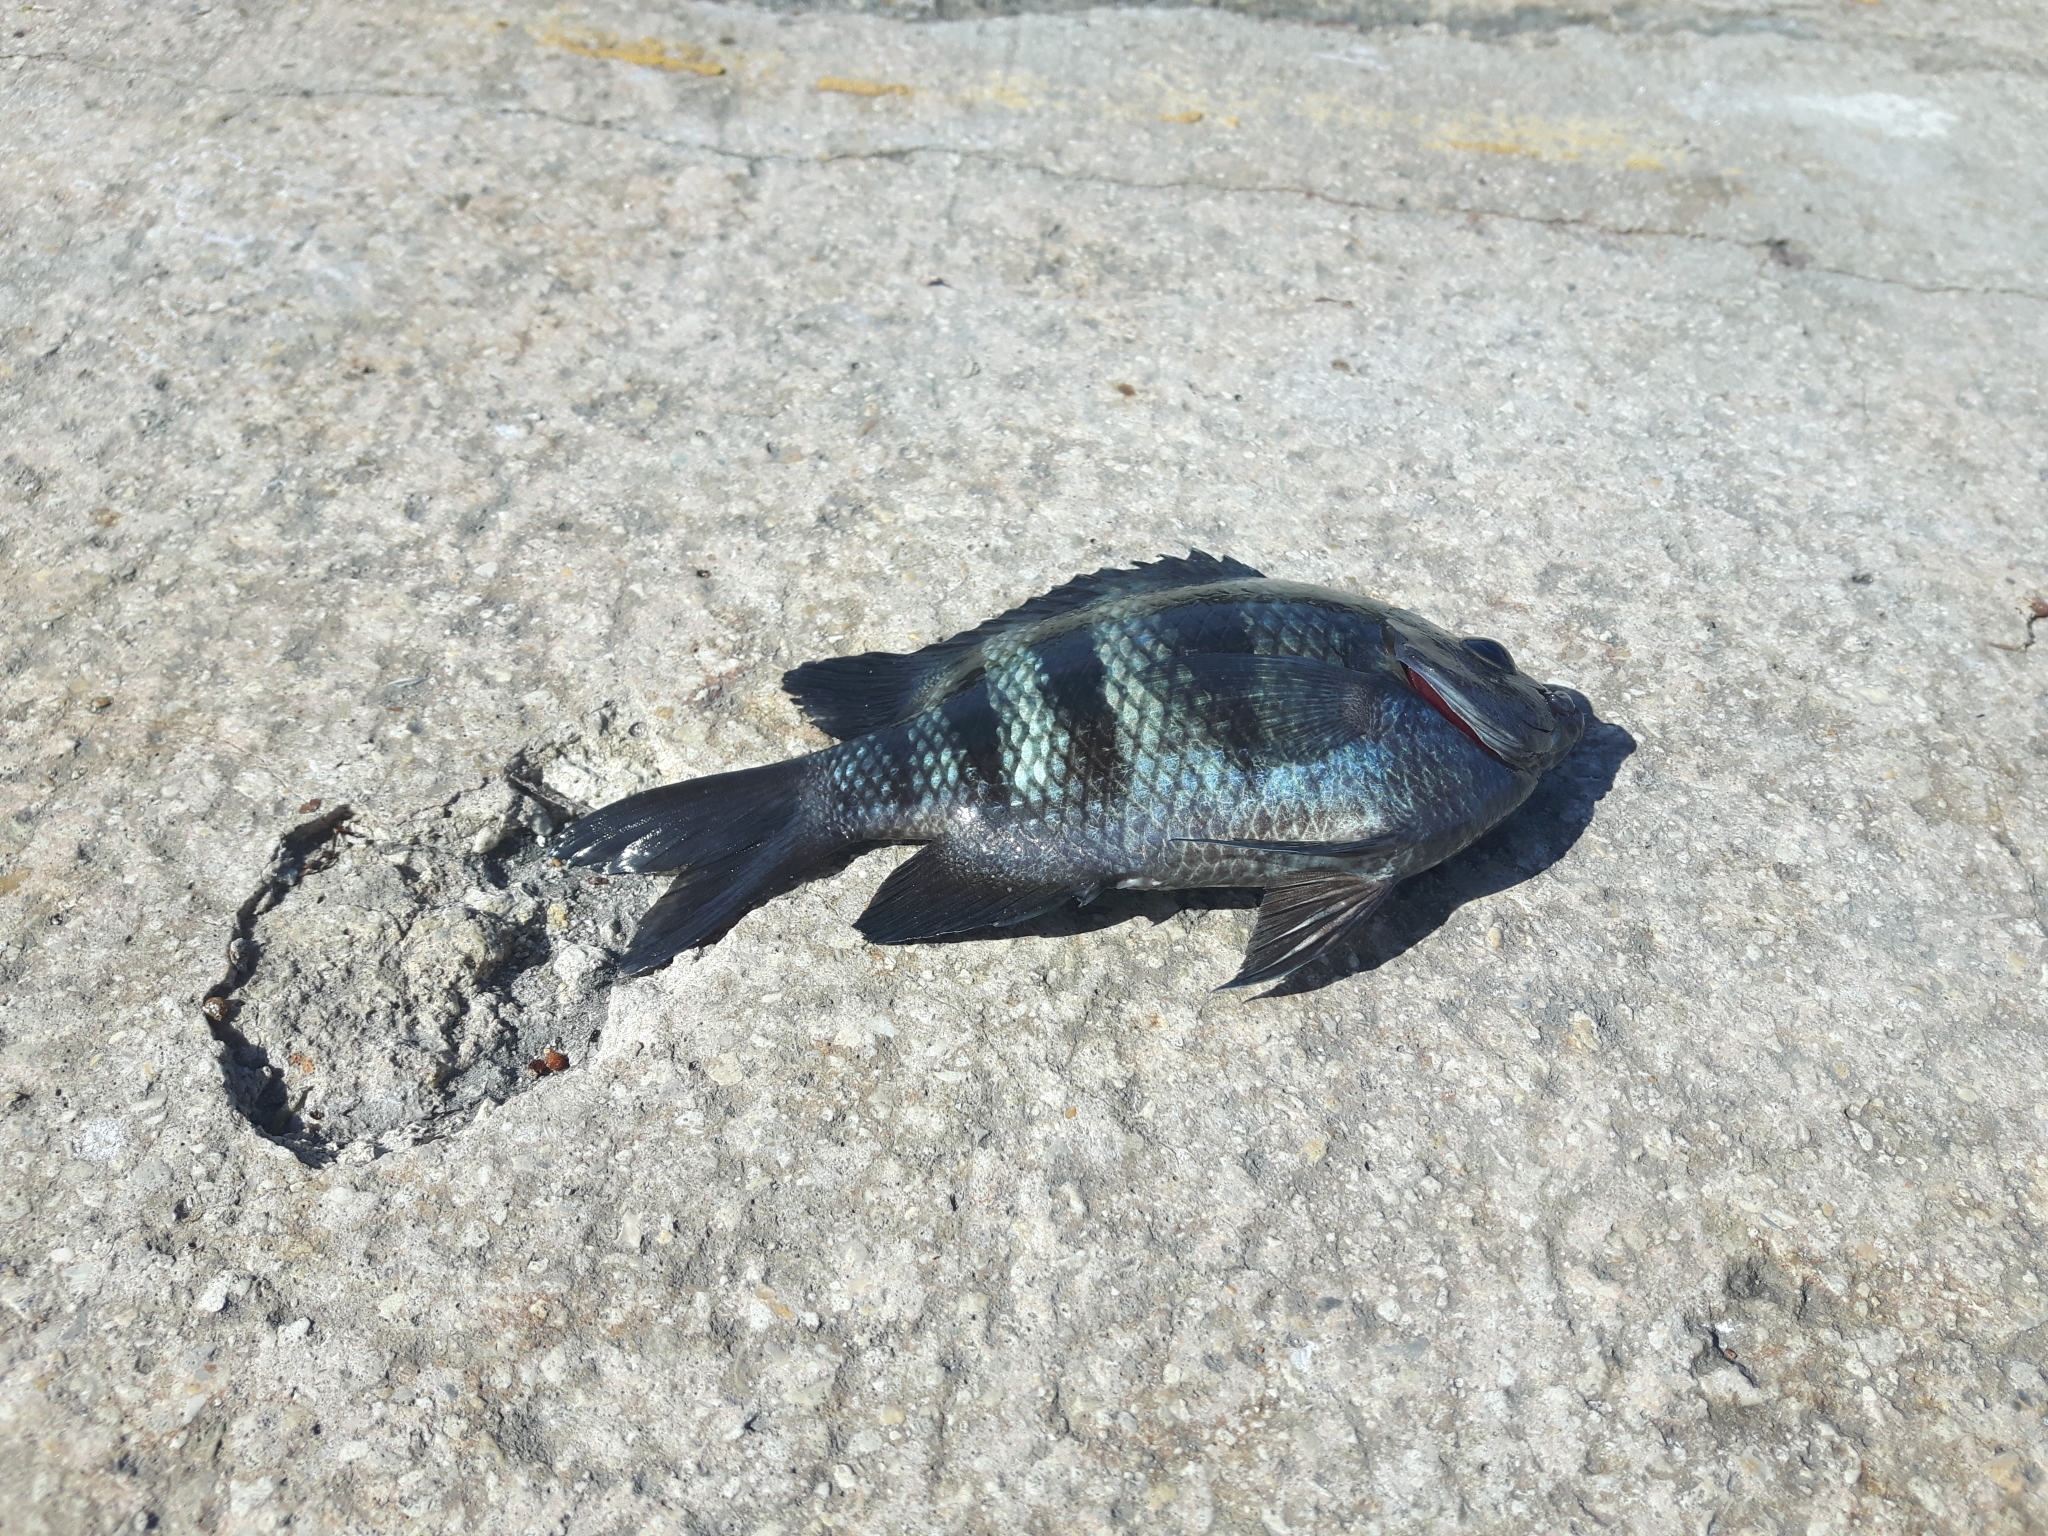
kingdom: Animalia
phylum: Chordata
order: Perciformes
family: Pomacentridae
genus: Abudefduf
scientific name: Abudefduf saxatilis
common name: Sergeant major
